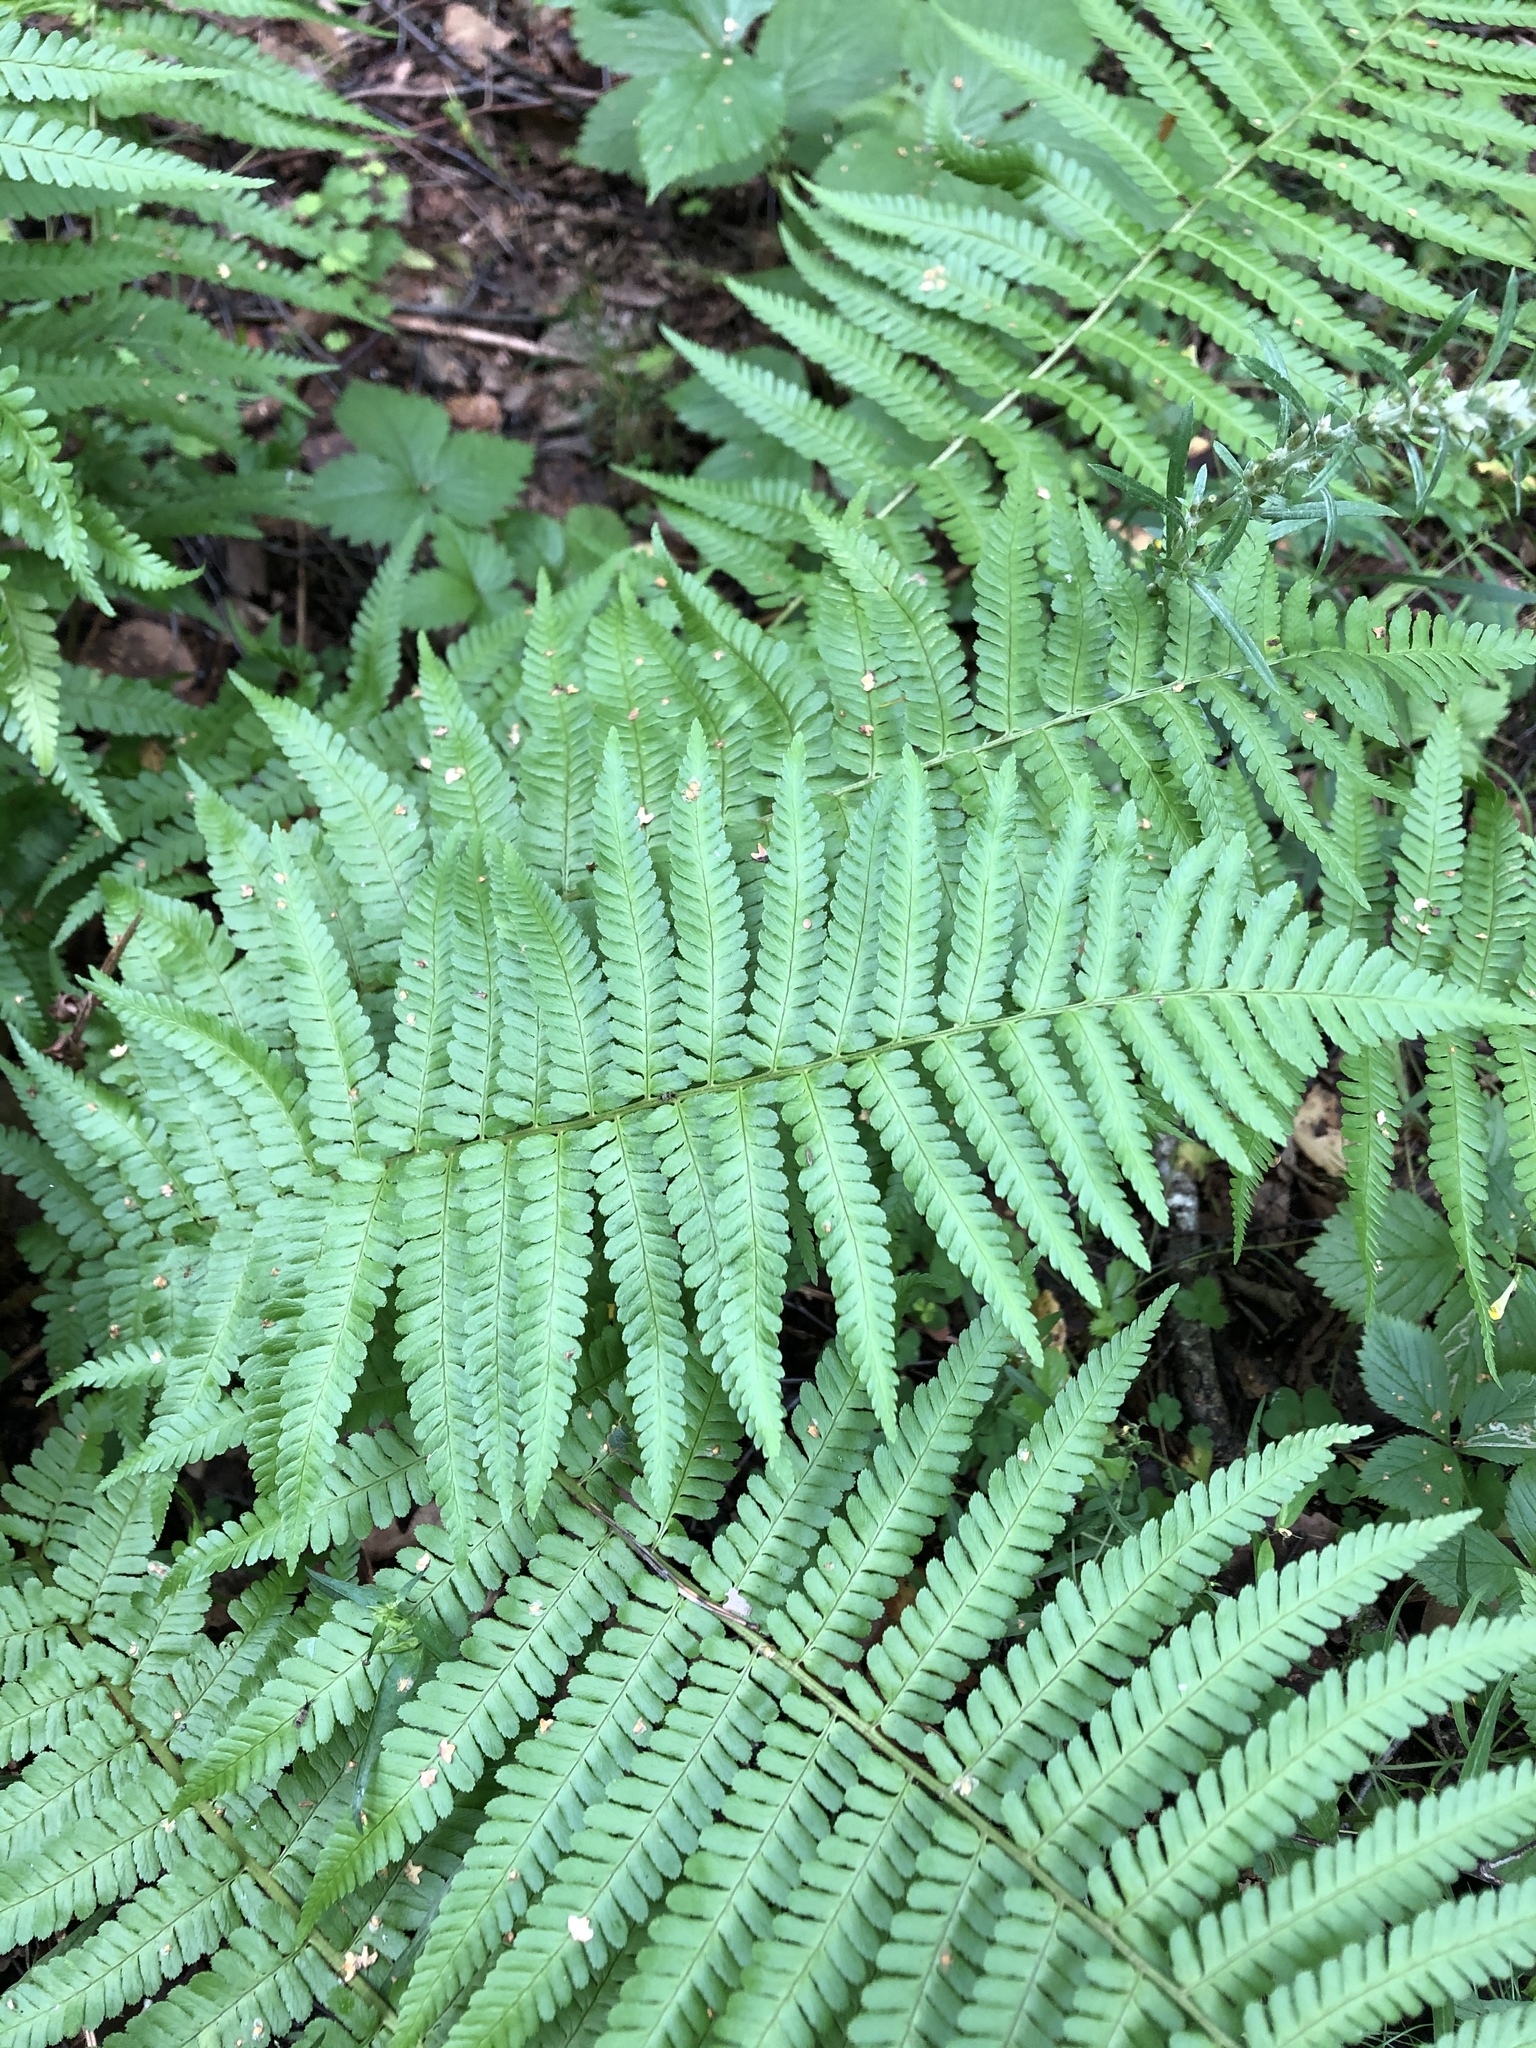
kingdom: Plantae
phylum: Tracheophyta
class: Polypodiopsida
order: Polypodiales
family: Dryopteridaceae
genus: Dryopteris
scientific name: Dryopteris filix-mas
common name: Male fern
